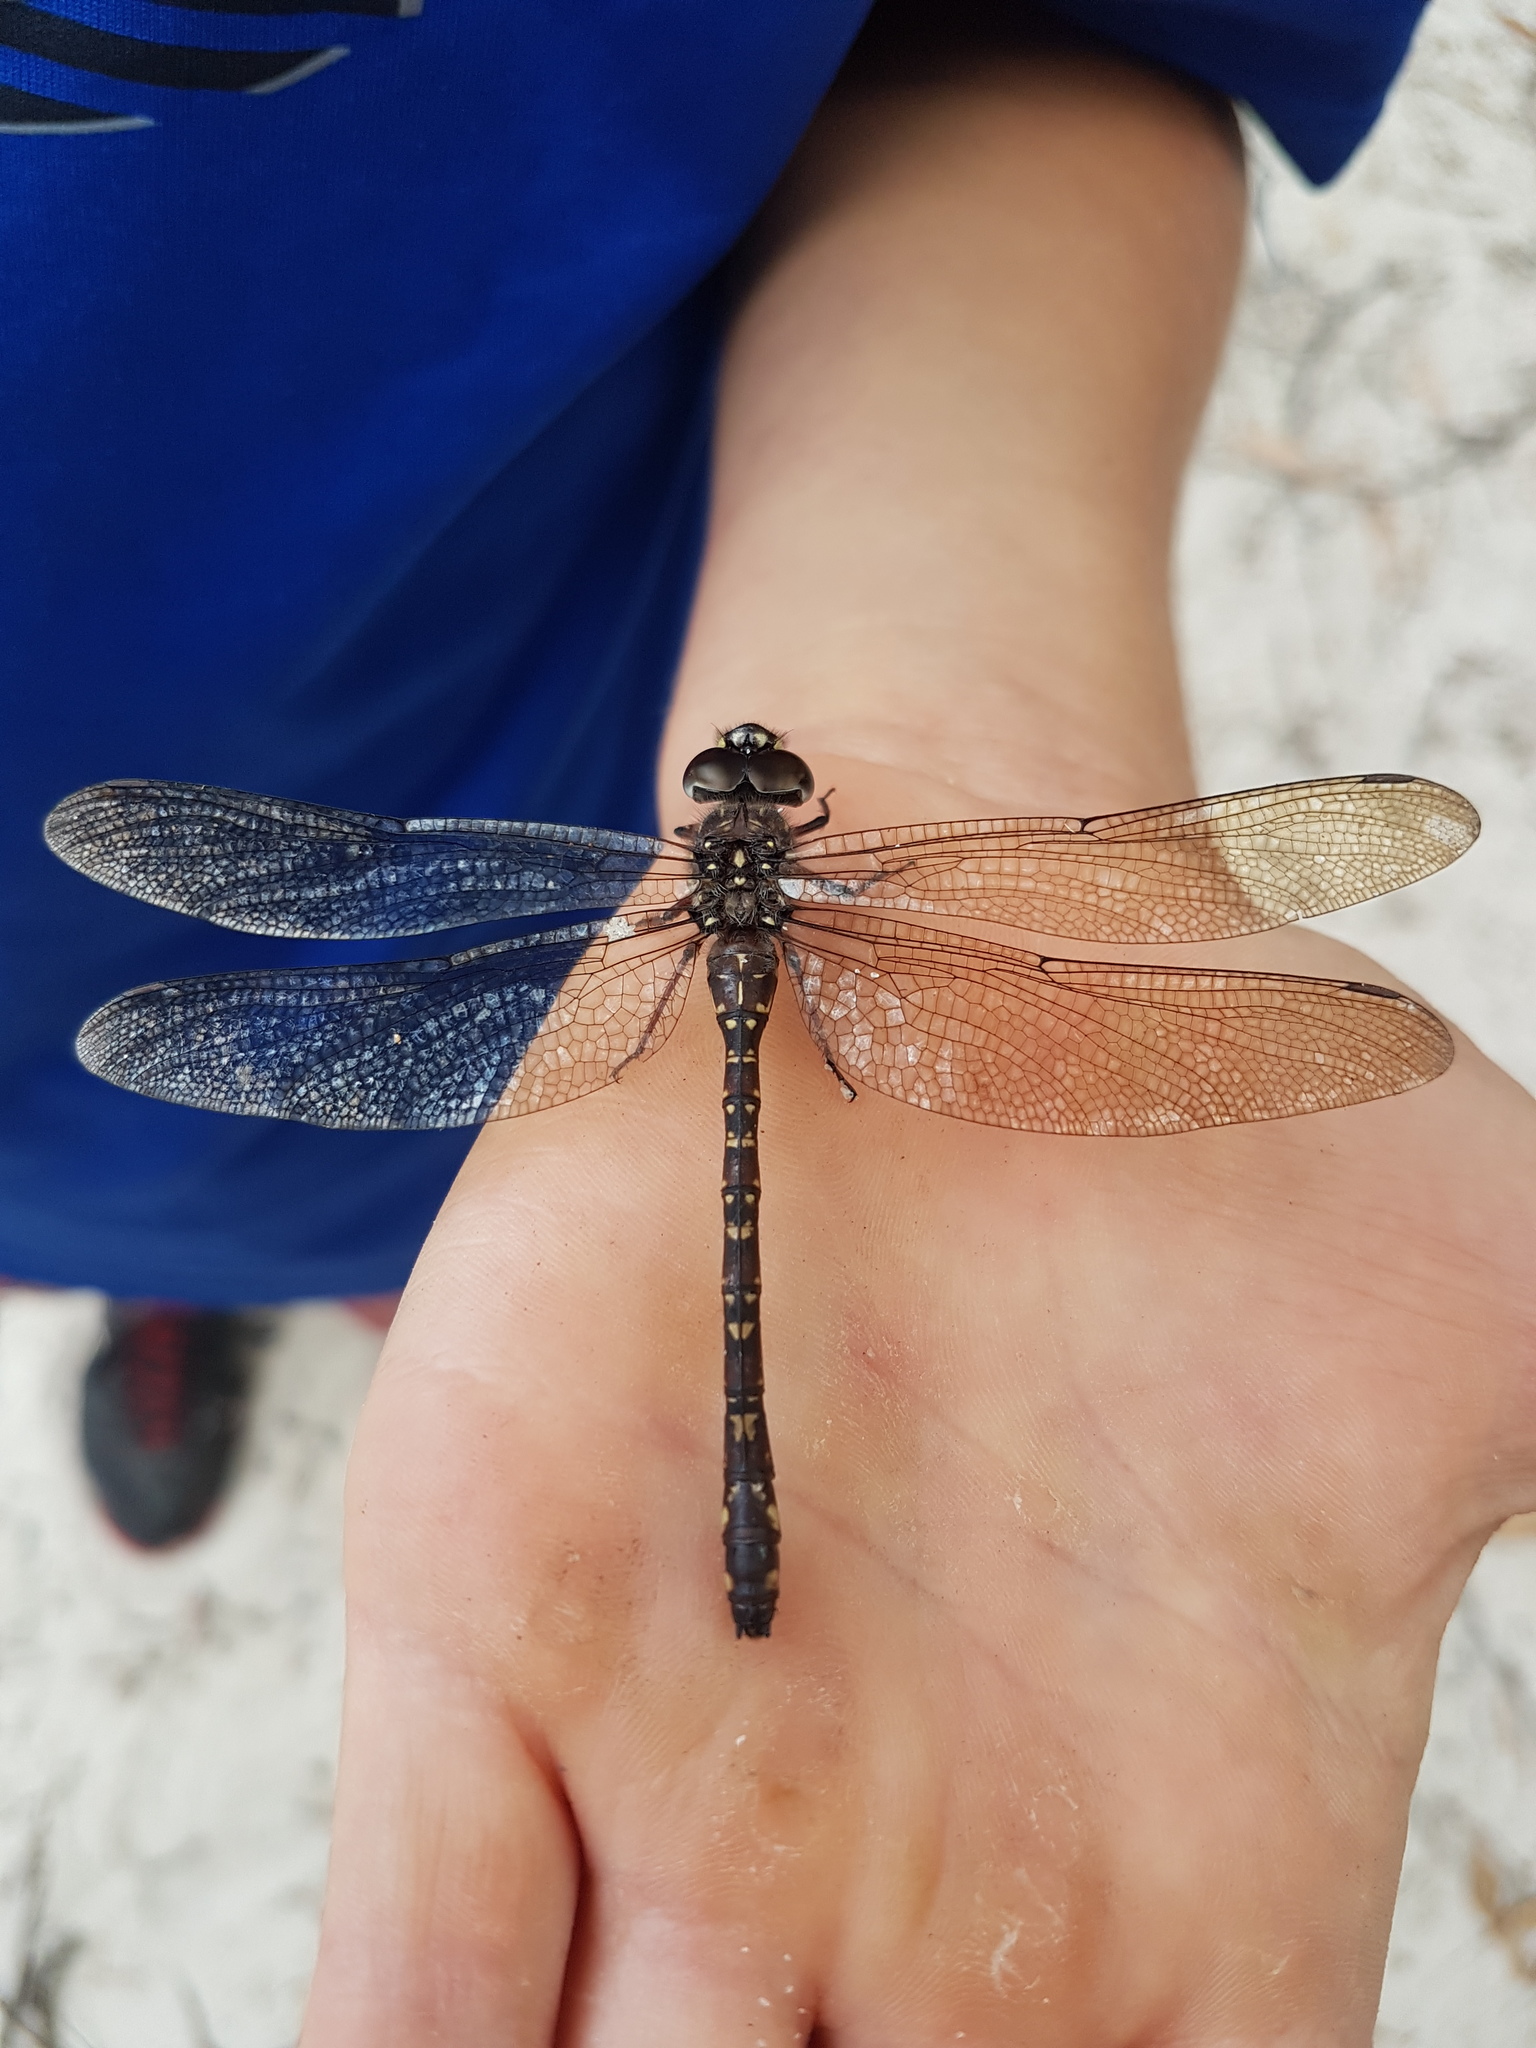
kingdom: Animalia
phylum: Arthropoda
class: Insecta
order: Odonata
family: Aeshnidae
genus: Austroaeschna
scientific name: Austroaeschna multipunctata
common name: Multi-spotted darner
